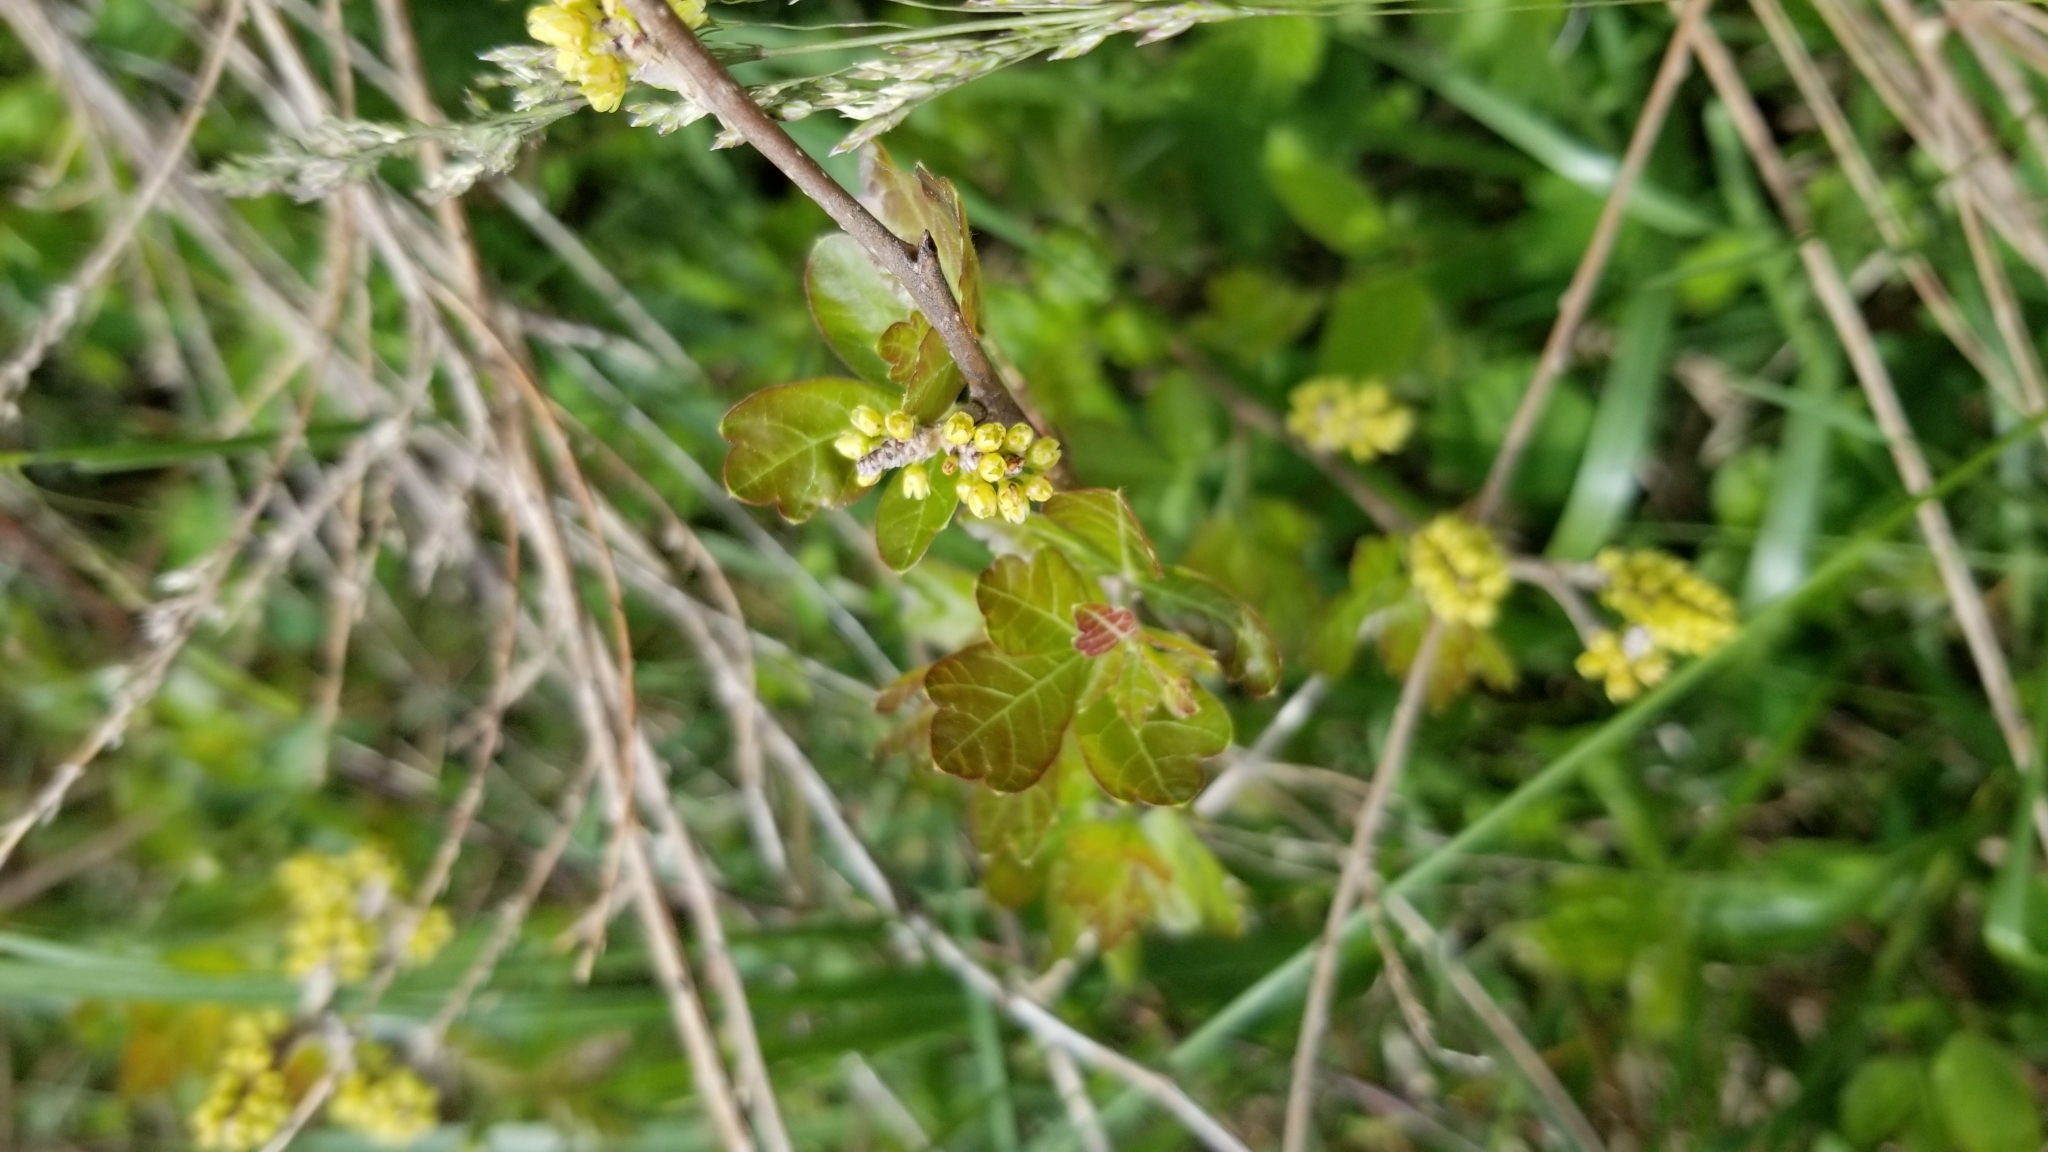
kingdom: Plantae
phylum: Tracheophyta
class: Magnoliopsida
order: Sapindales
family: Anacardiaceae
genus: Rhus
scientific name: Rhus aromatica
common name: Aromatic sumac
